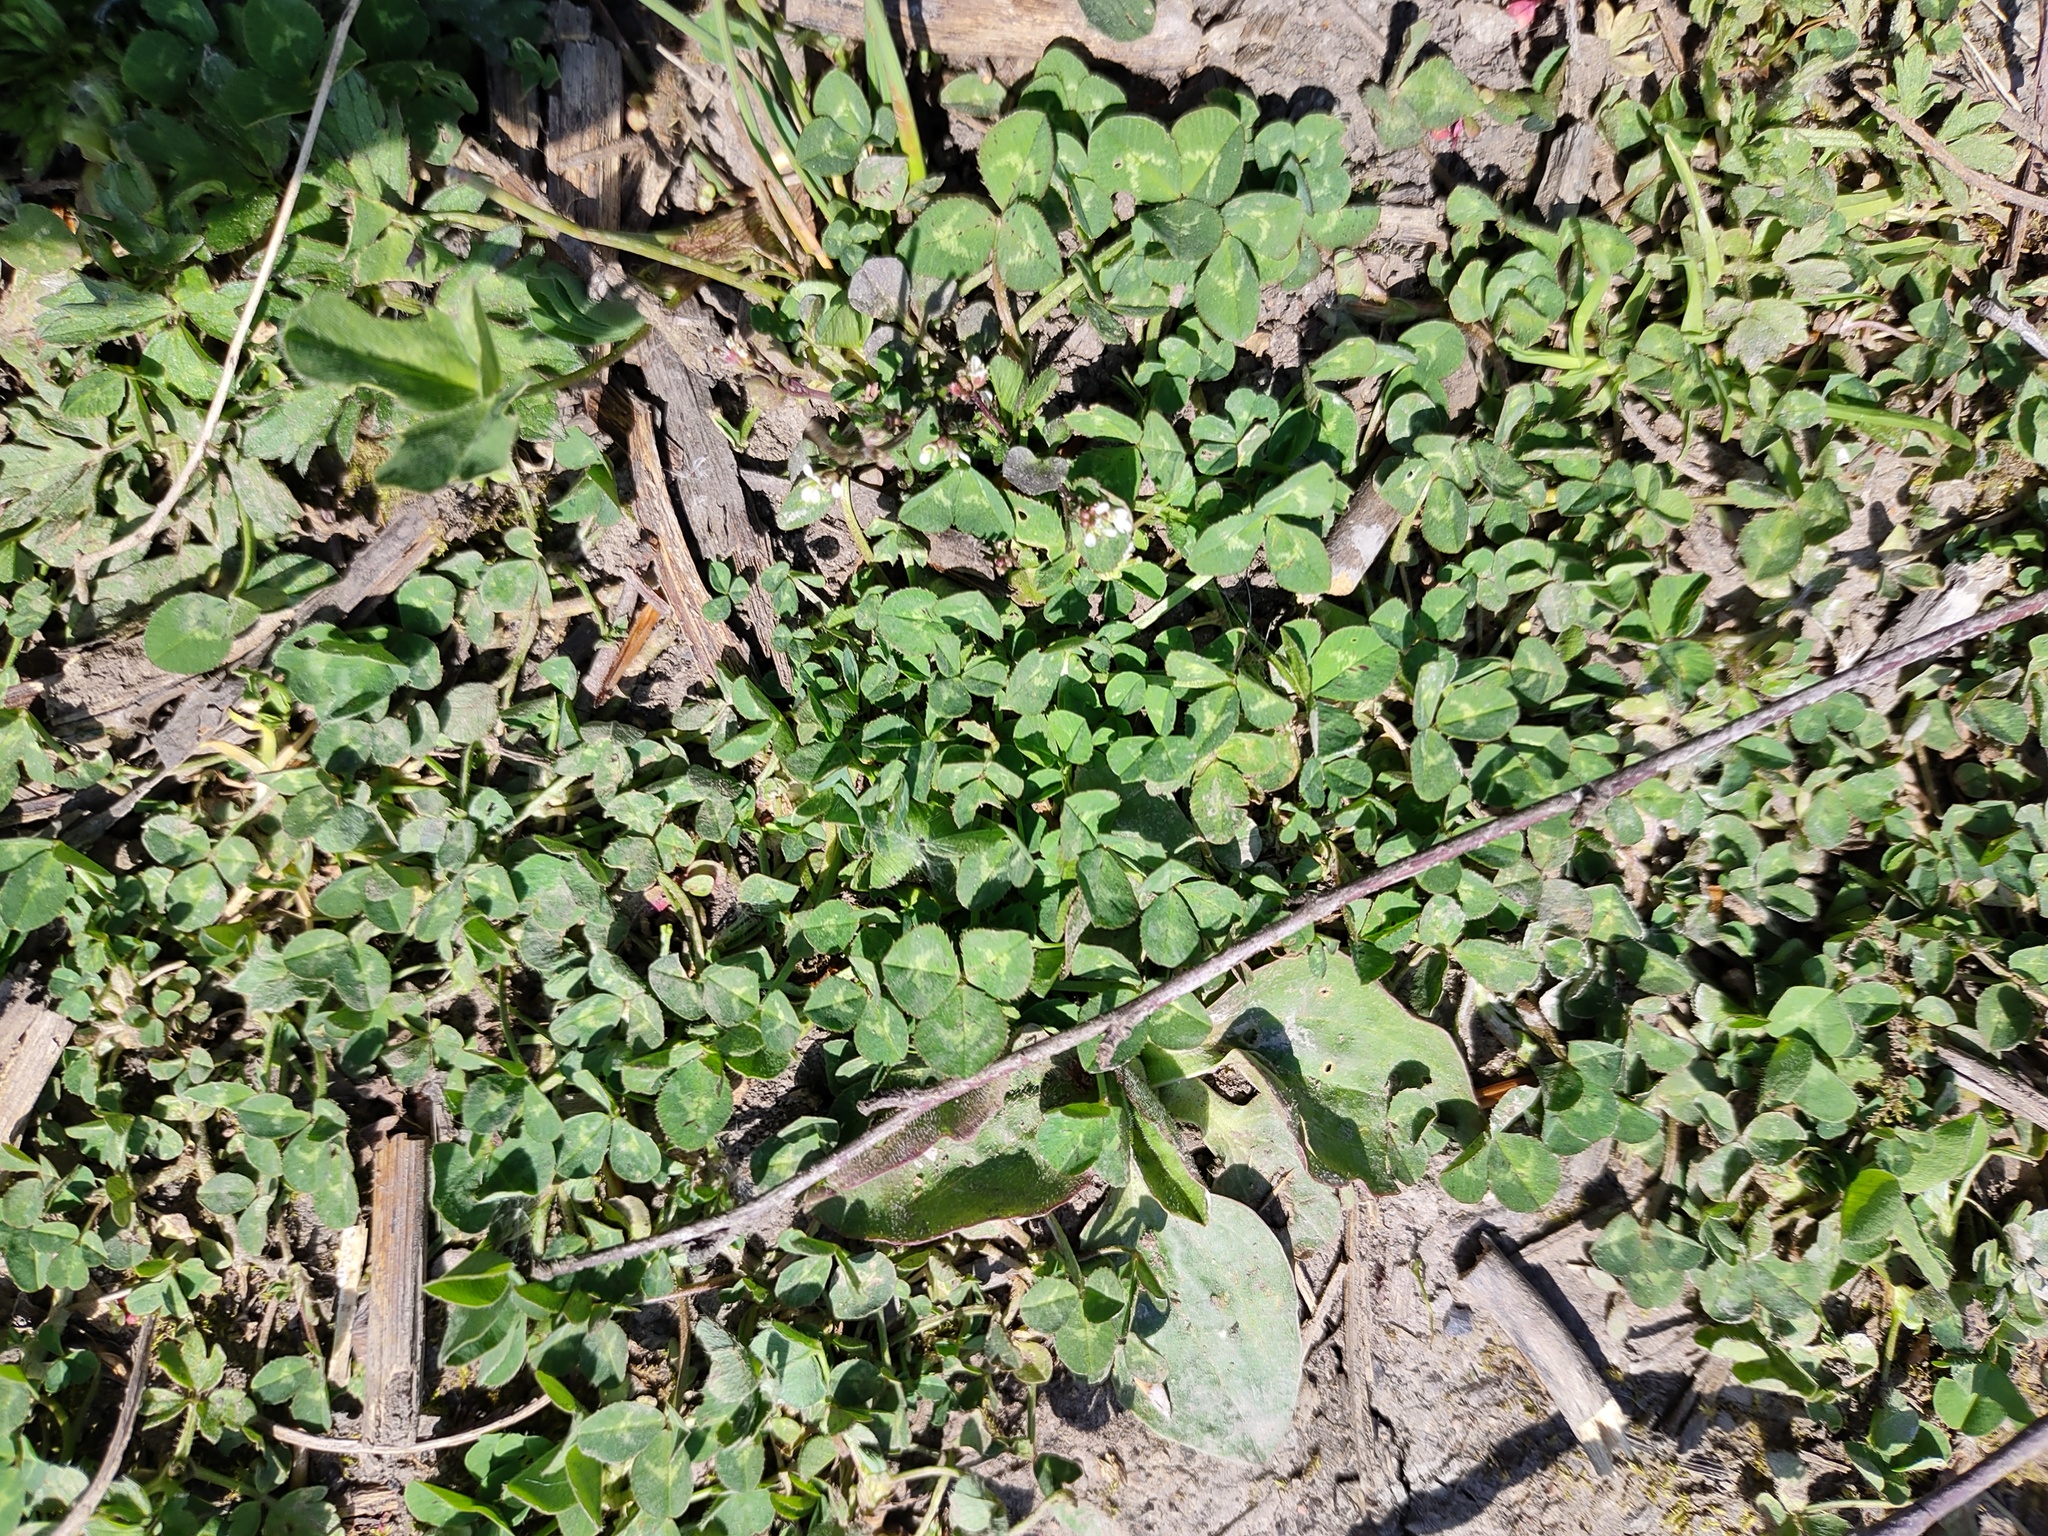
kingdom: Plantae
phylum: Tracheophyta
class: Magnoliopsida
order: Fabales
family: Fabaceae
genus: Trifolium
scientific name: Trifolium repens
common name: White clover
